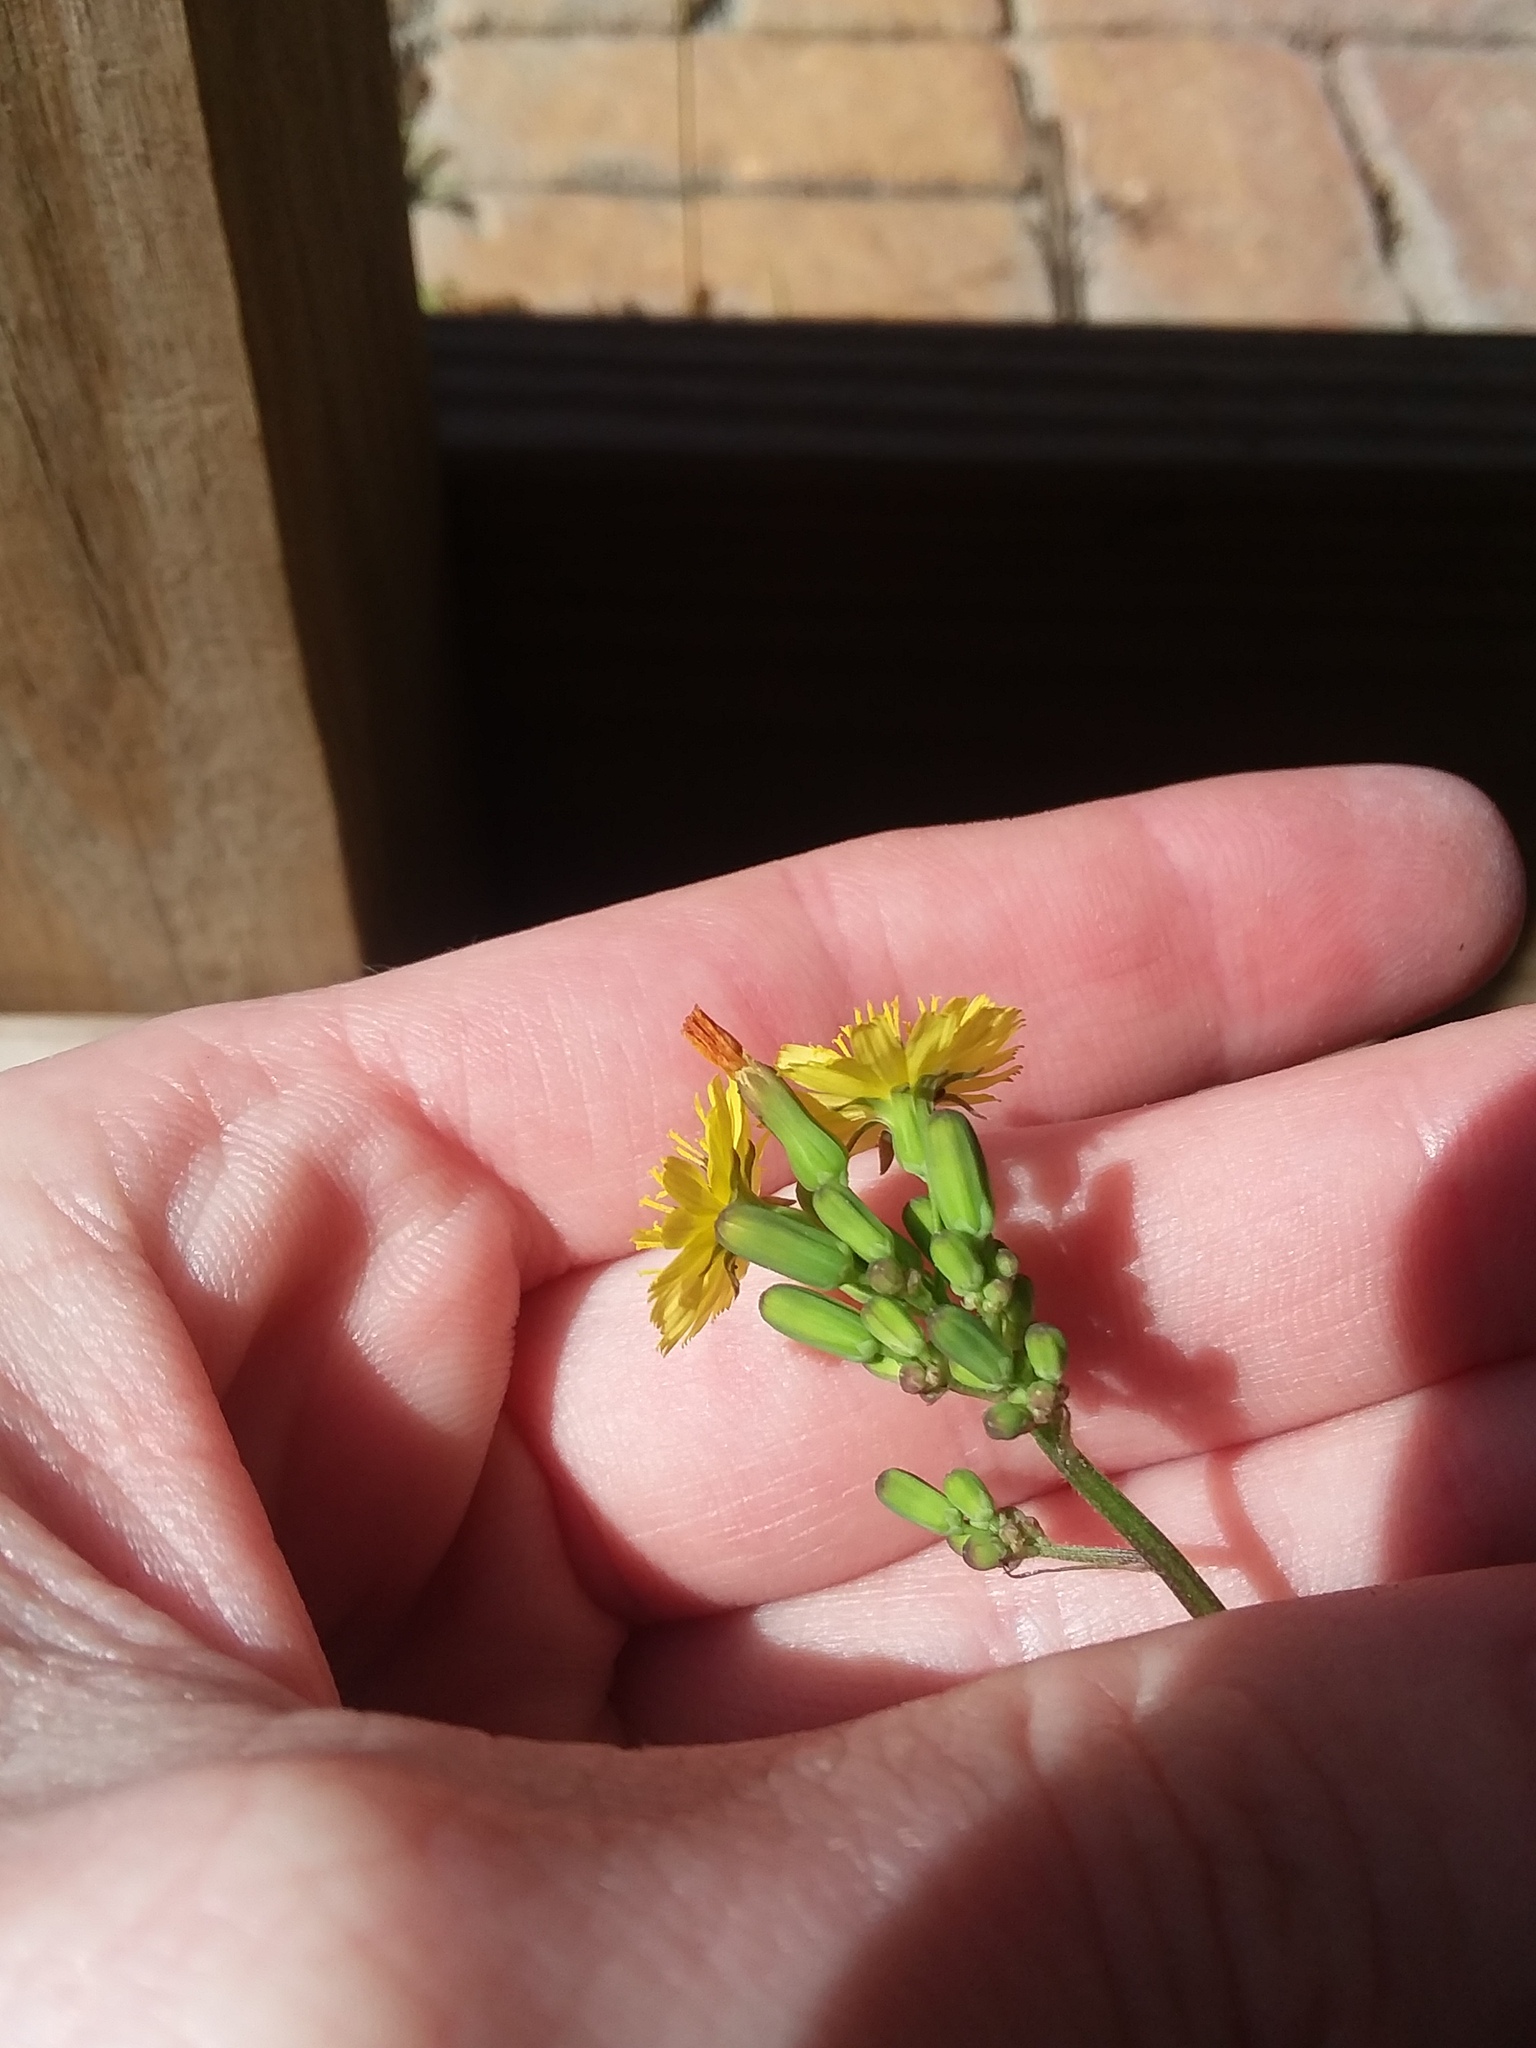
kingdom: Plantae
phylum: Tracheophyta
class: Magnoliopsida
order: Asterales
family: Asteraceae
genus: Youngia
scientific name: Youngia japonica
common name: Oriental false hawksbeard
